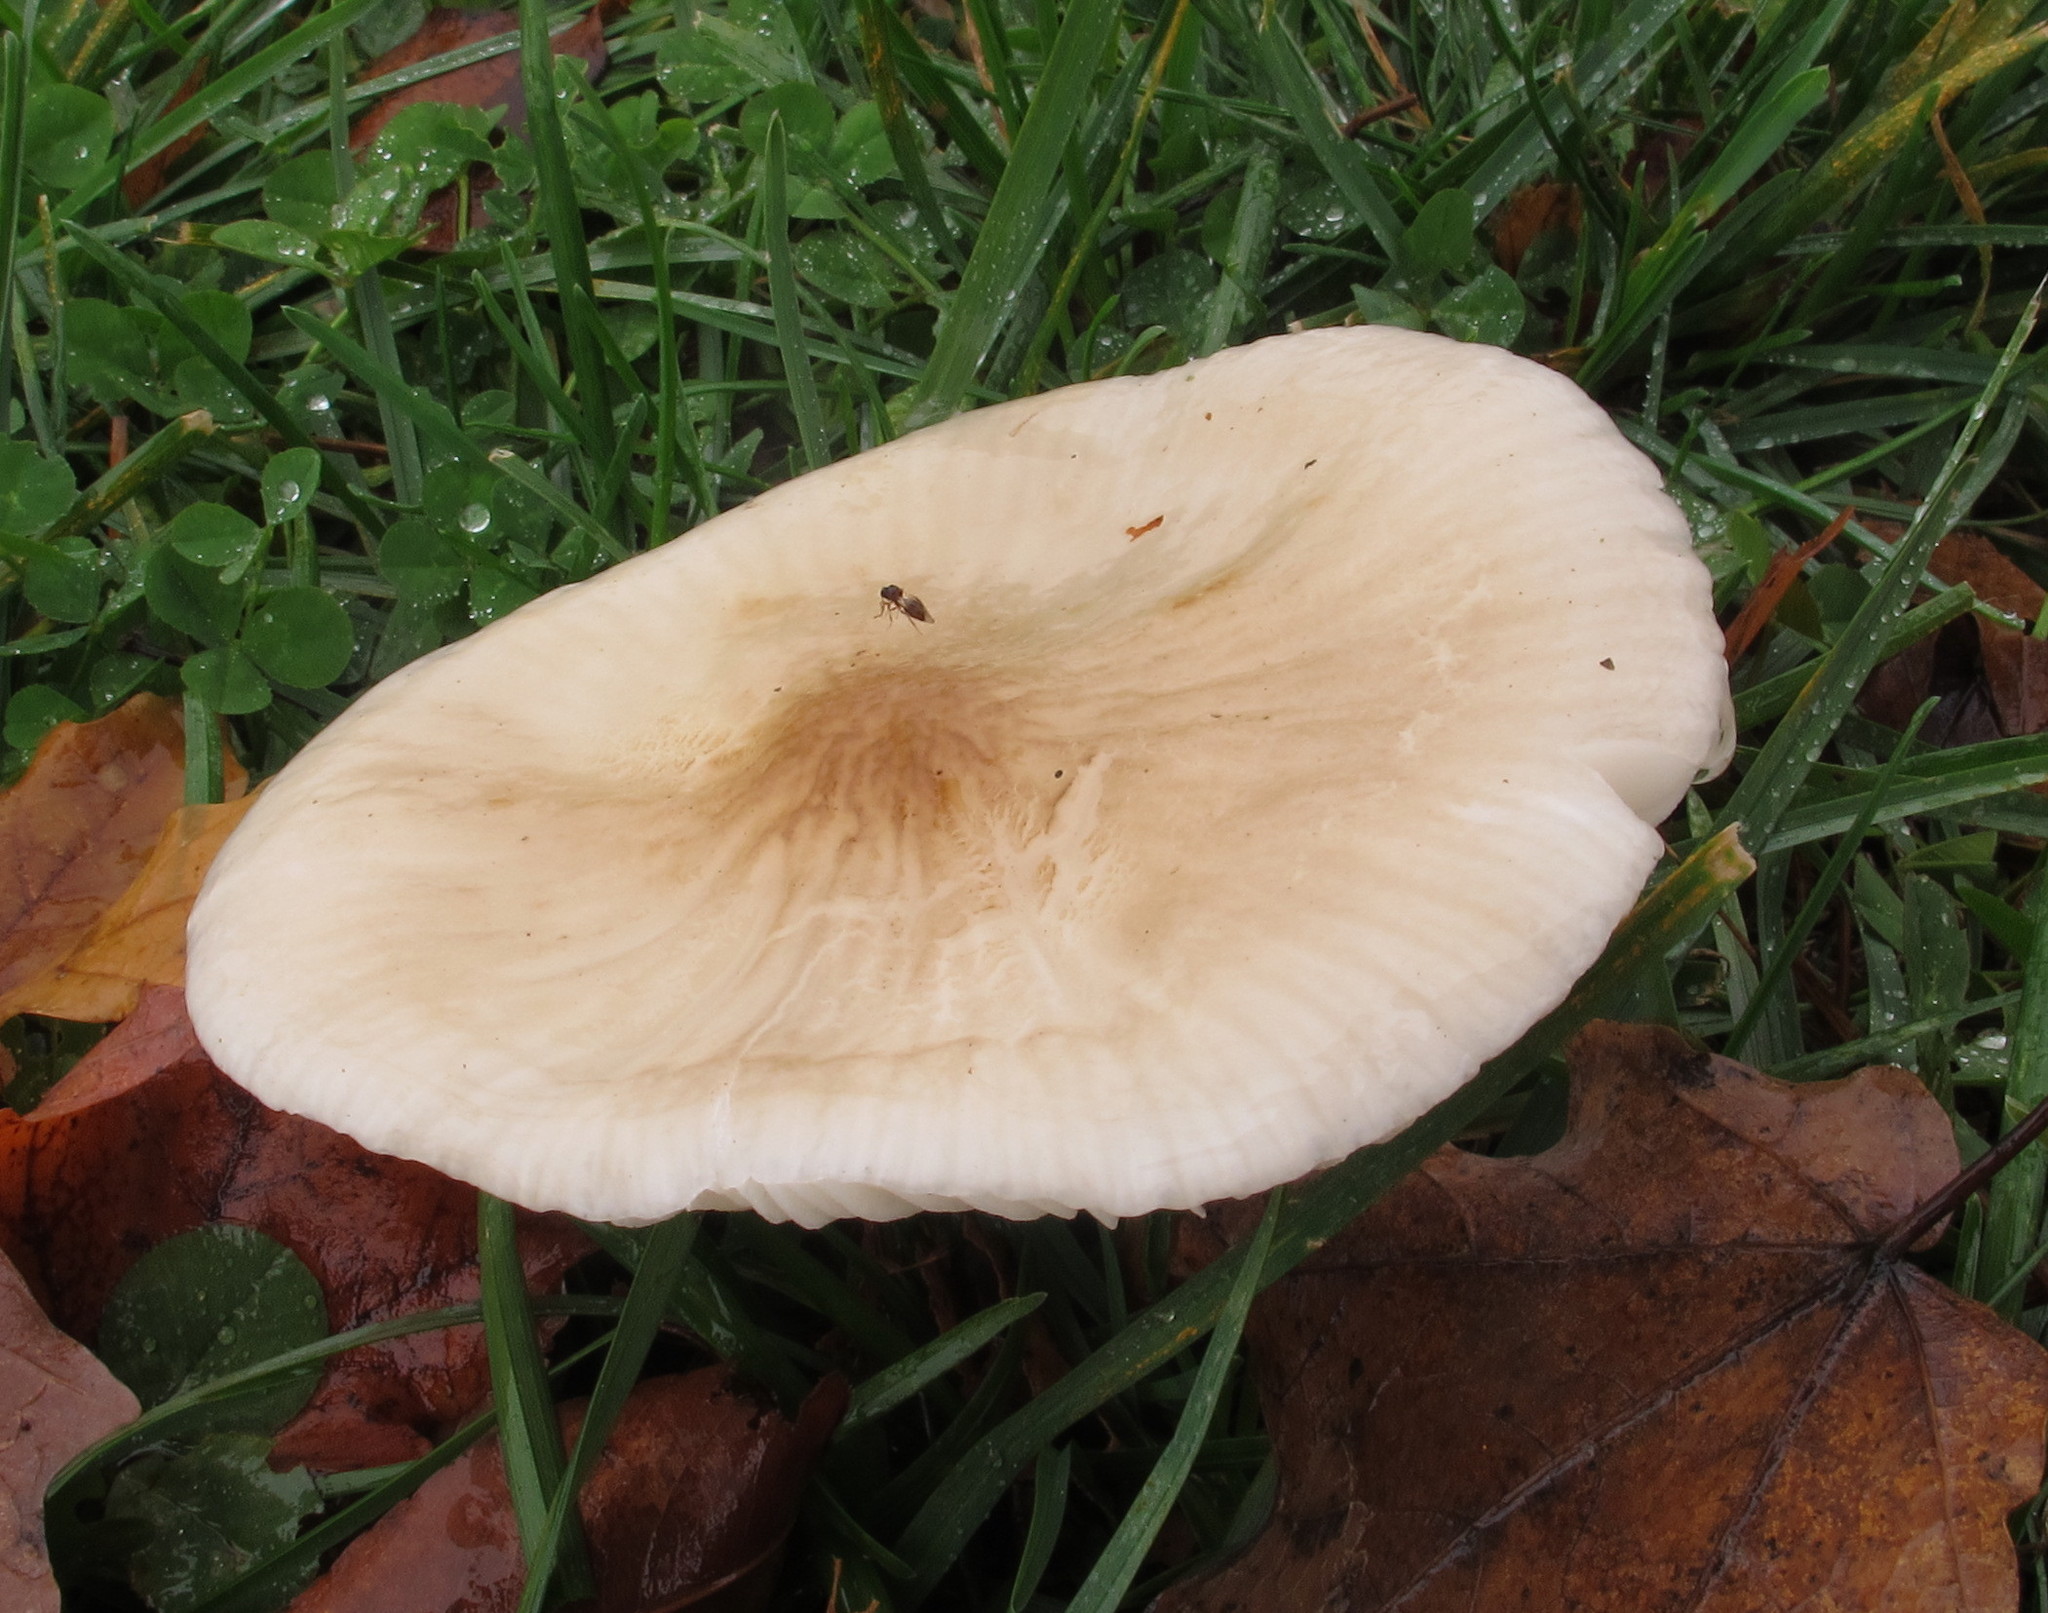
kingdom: Fungi
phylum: Basidiomycota
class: Agaricomycetes
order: Agaricales
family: Physalacriaceae
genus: Hymenopellis
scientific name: Hymenopellis megalospora
